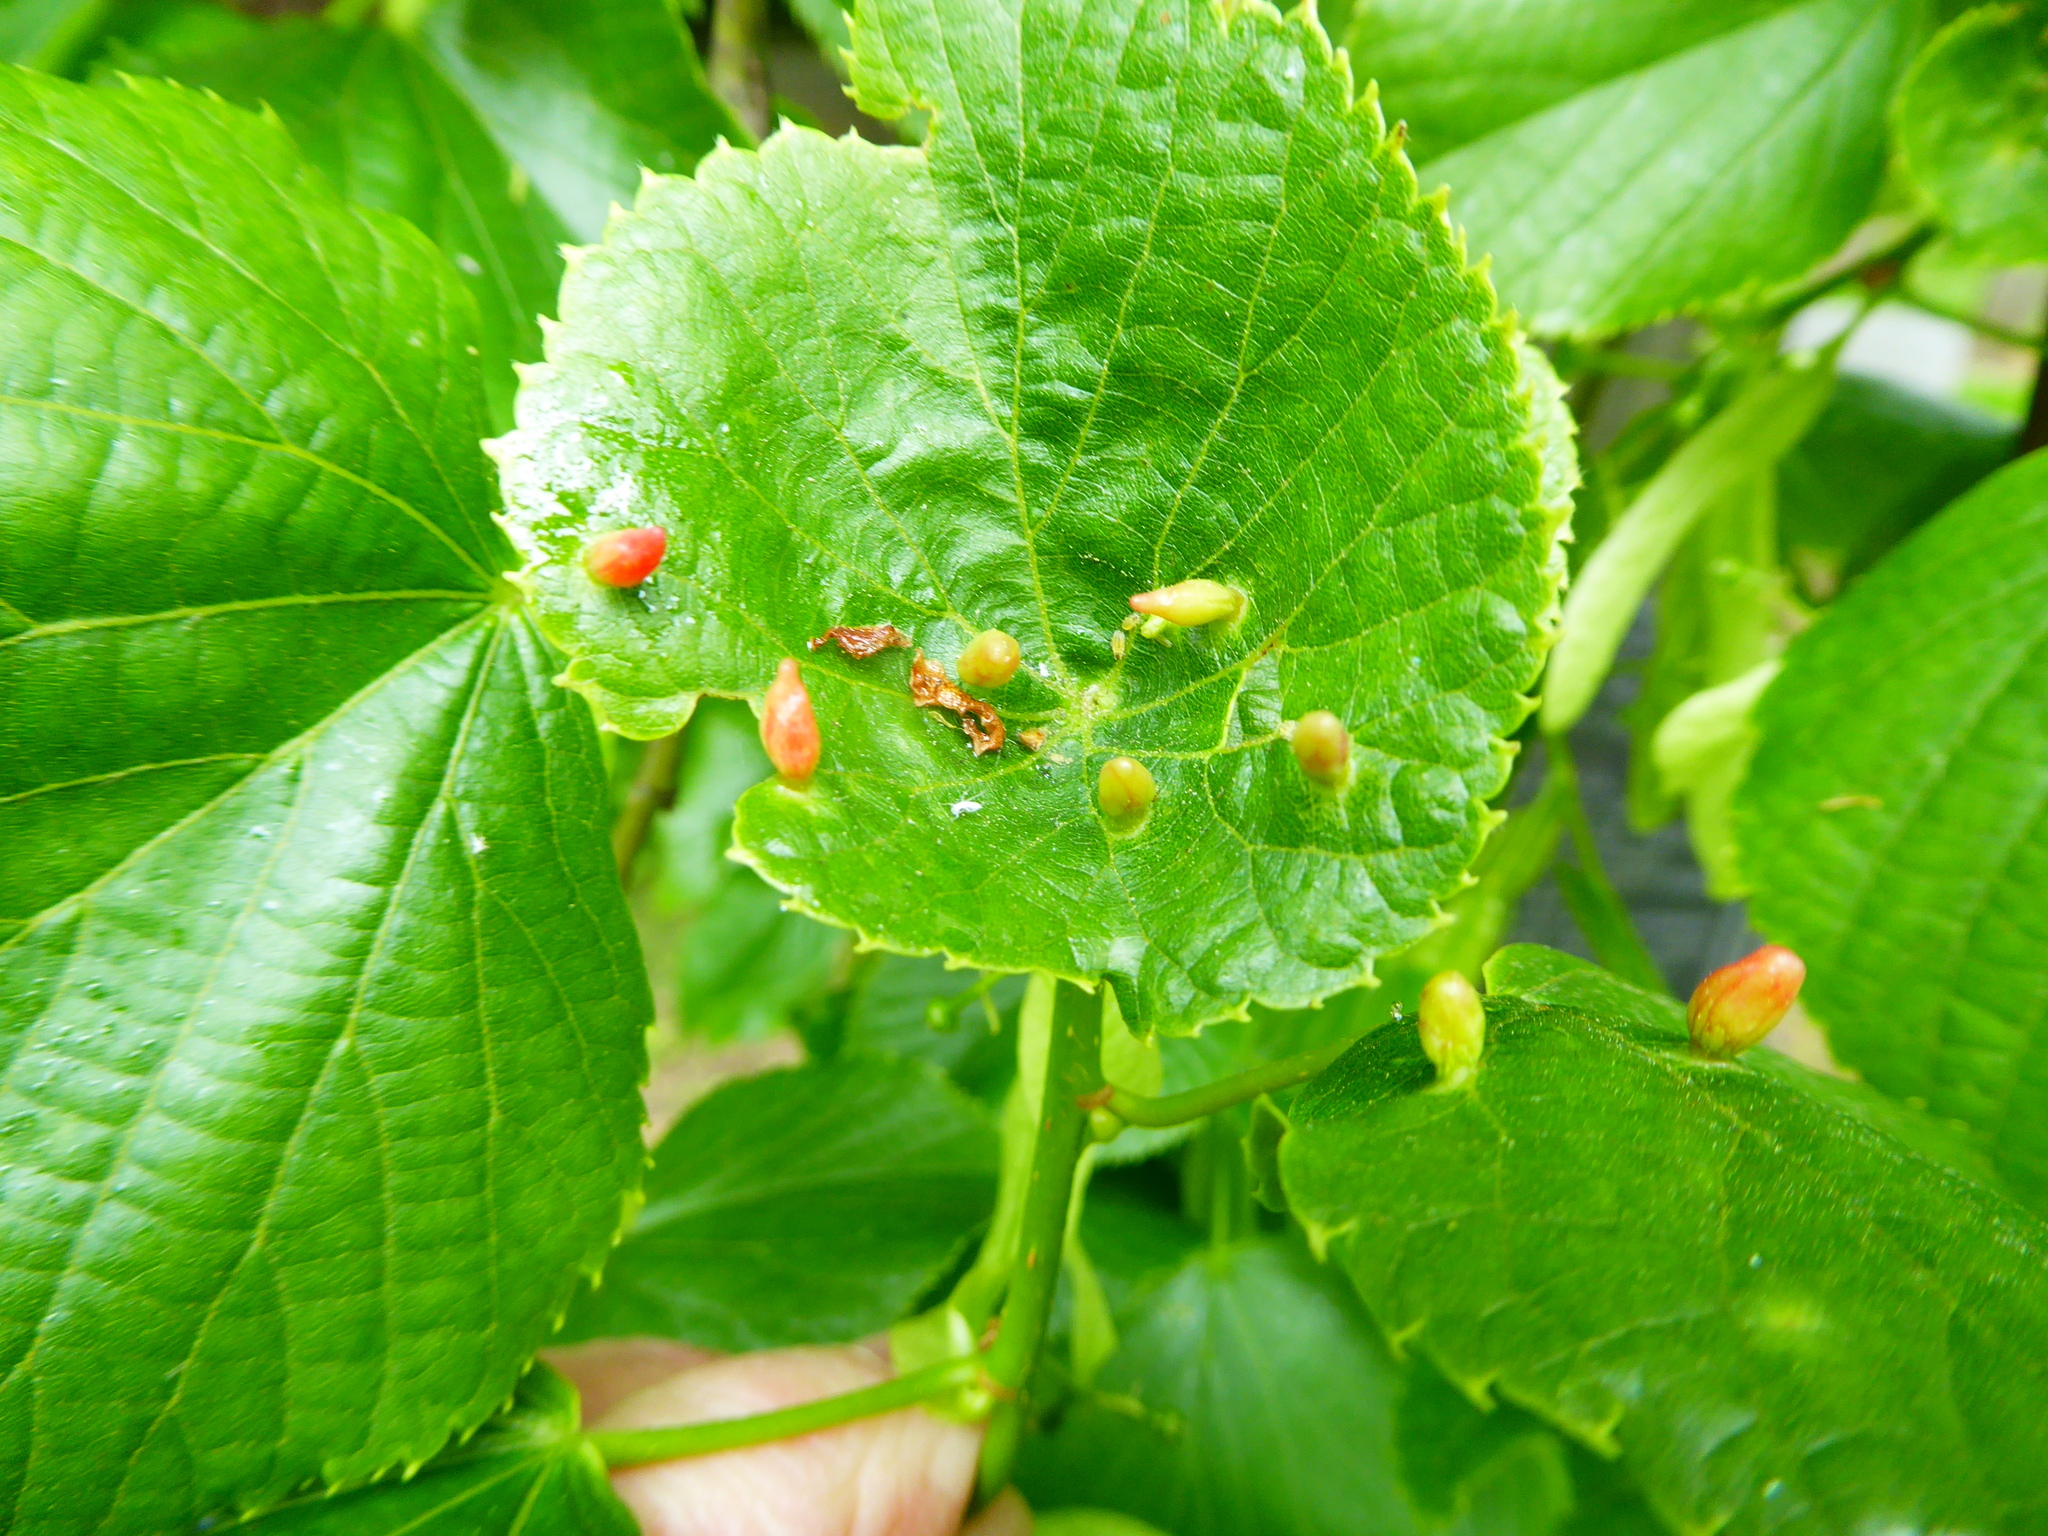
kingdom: Animalia
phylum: Arthropoda
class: Arachnida
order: Trombidiformes
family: Eriophyidae
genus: Eriophyes
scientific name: Eriophyes tiliae
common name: Red nail gall mite
